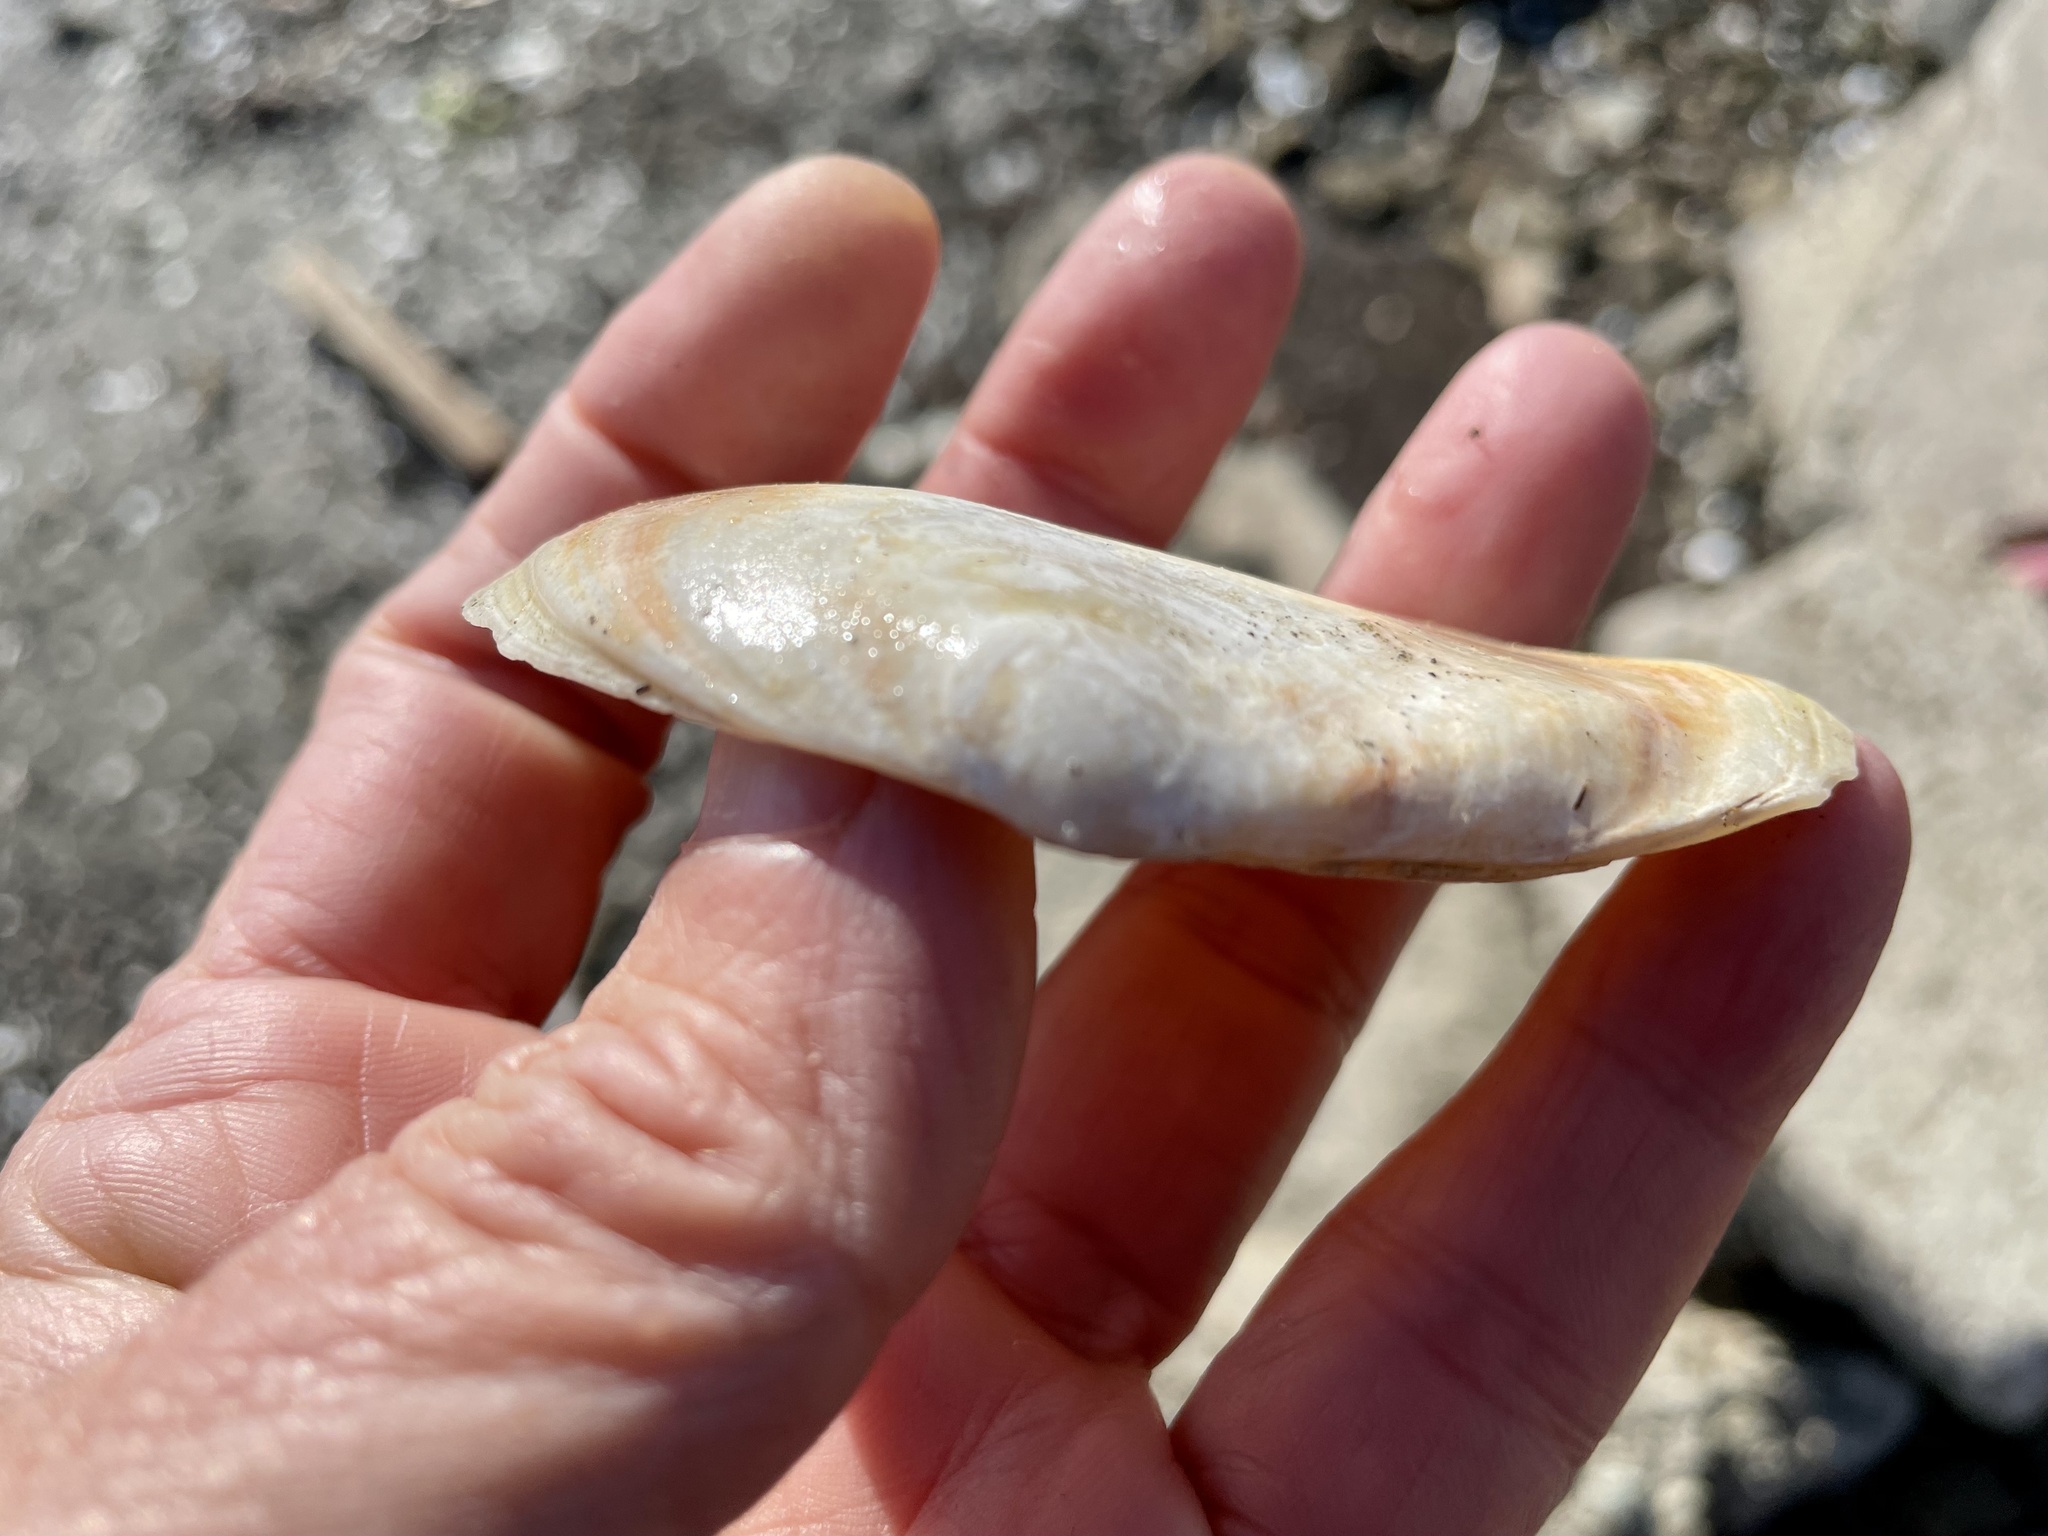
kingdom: Animalia
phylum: Mollusca
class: Bivalvia
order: Cardiida
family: Tellinidae
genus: Macoma
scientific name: Macoma nasuta
